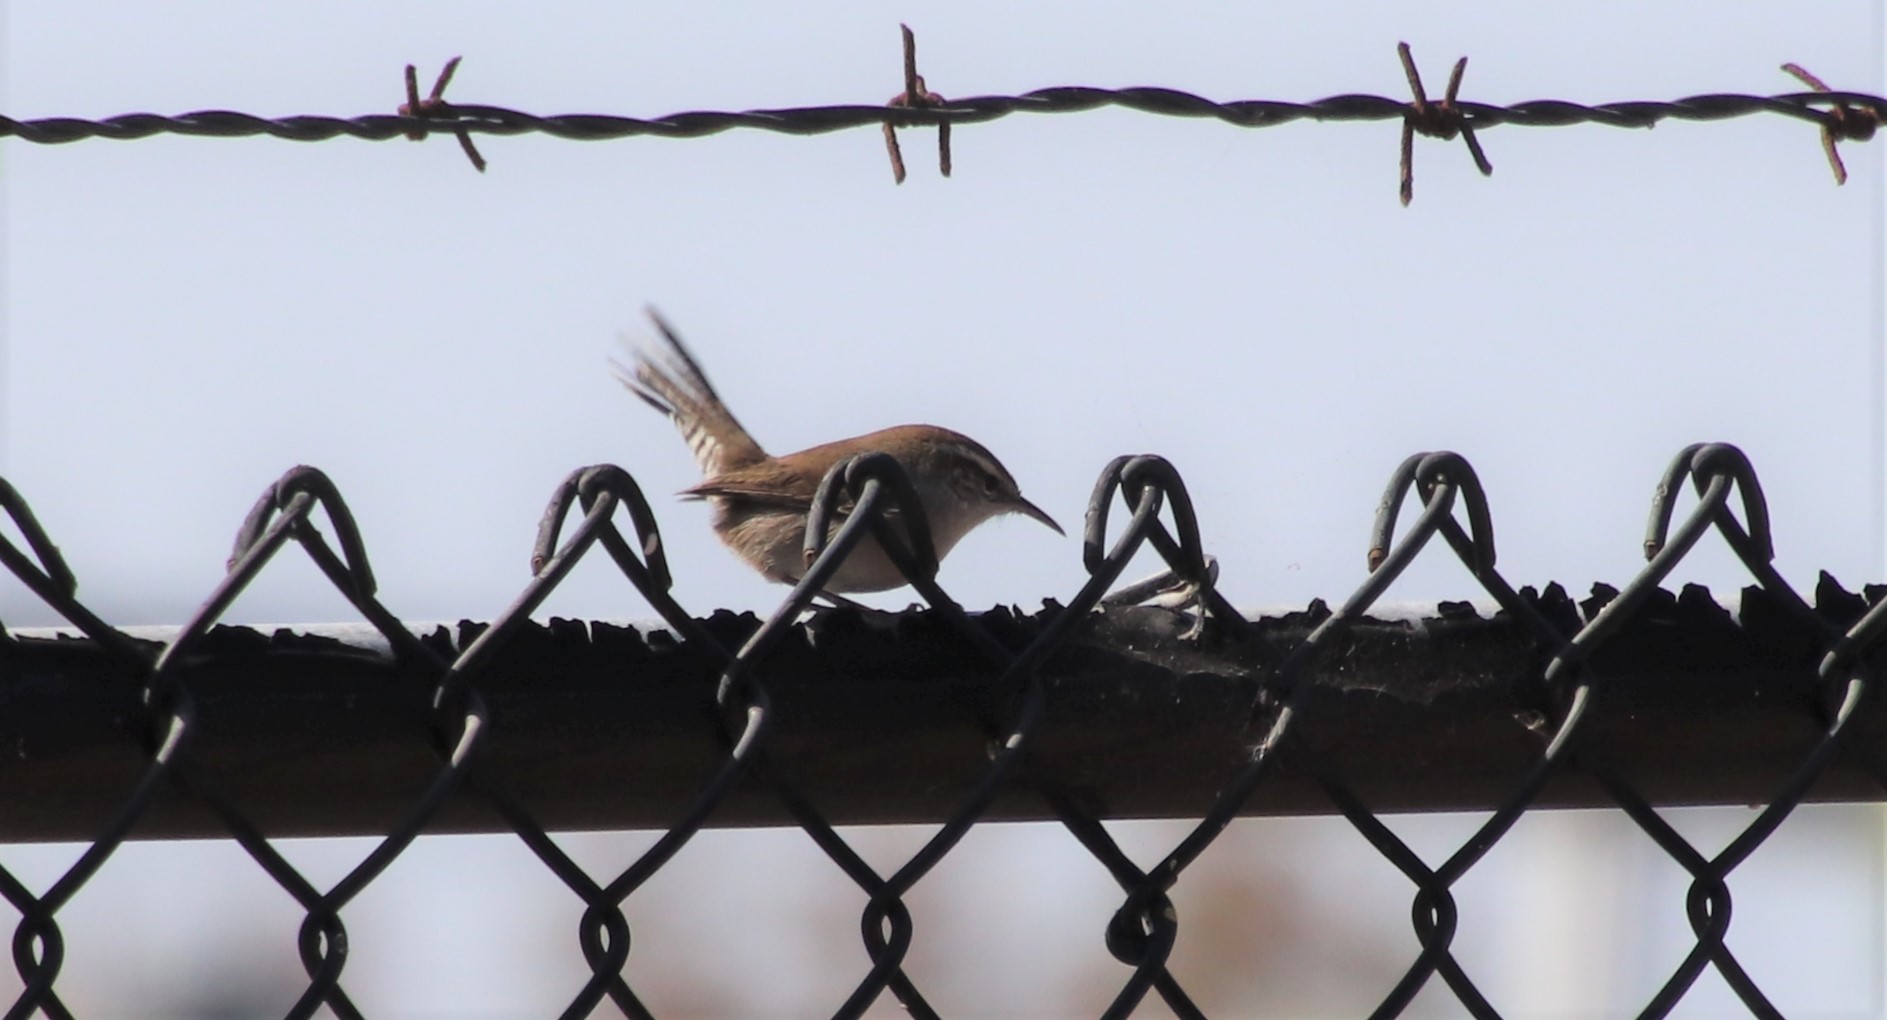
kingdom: Animalia
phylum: Chordata
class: Aves
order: Passeriformes
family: Troglodytidae
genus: Thryomanes
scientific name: Thryomanes bewickii
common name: Bewick's wren
